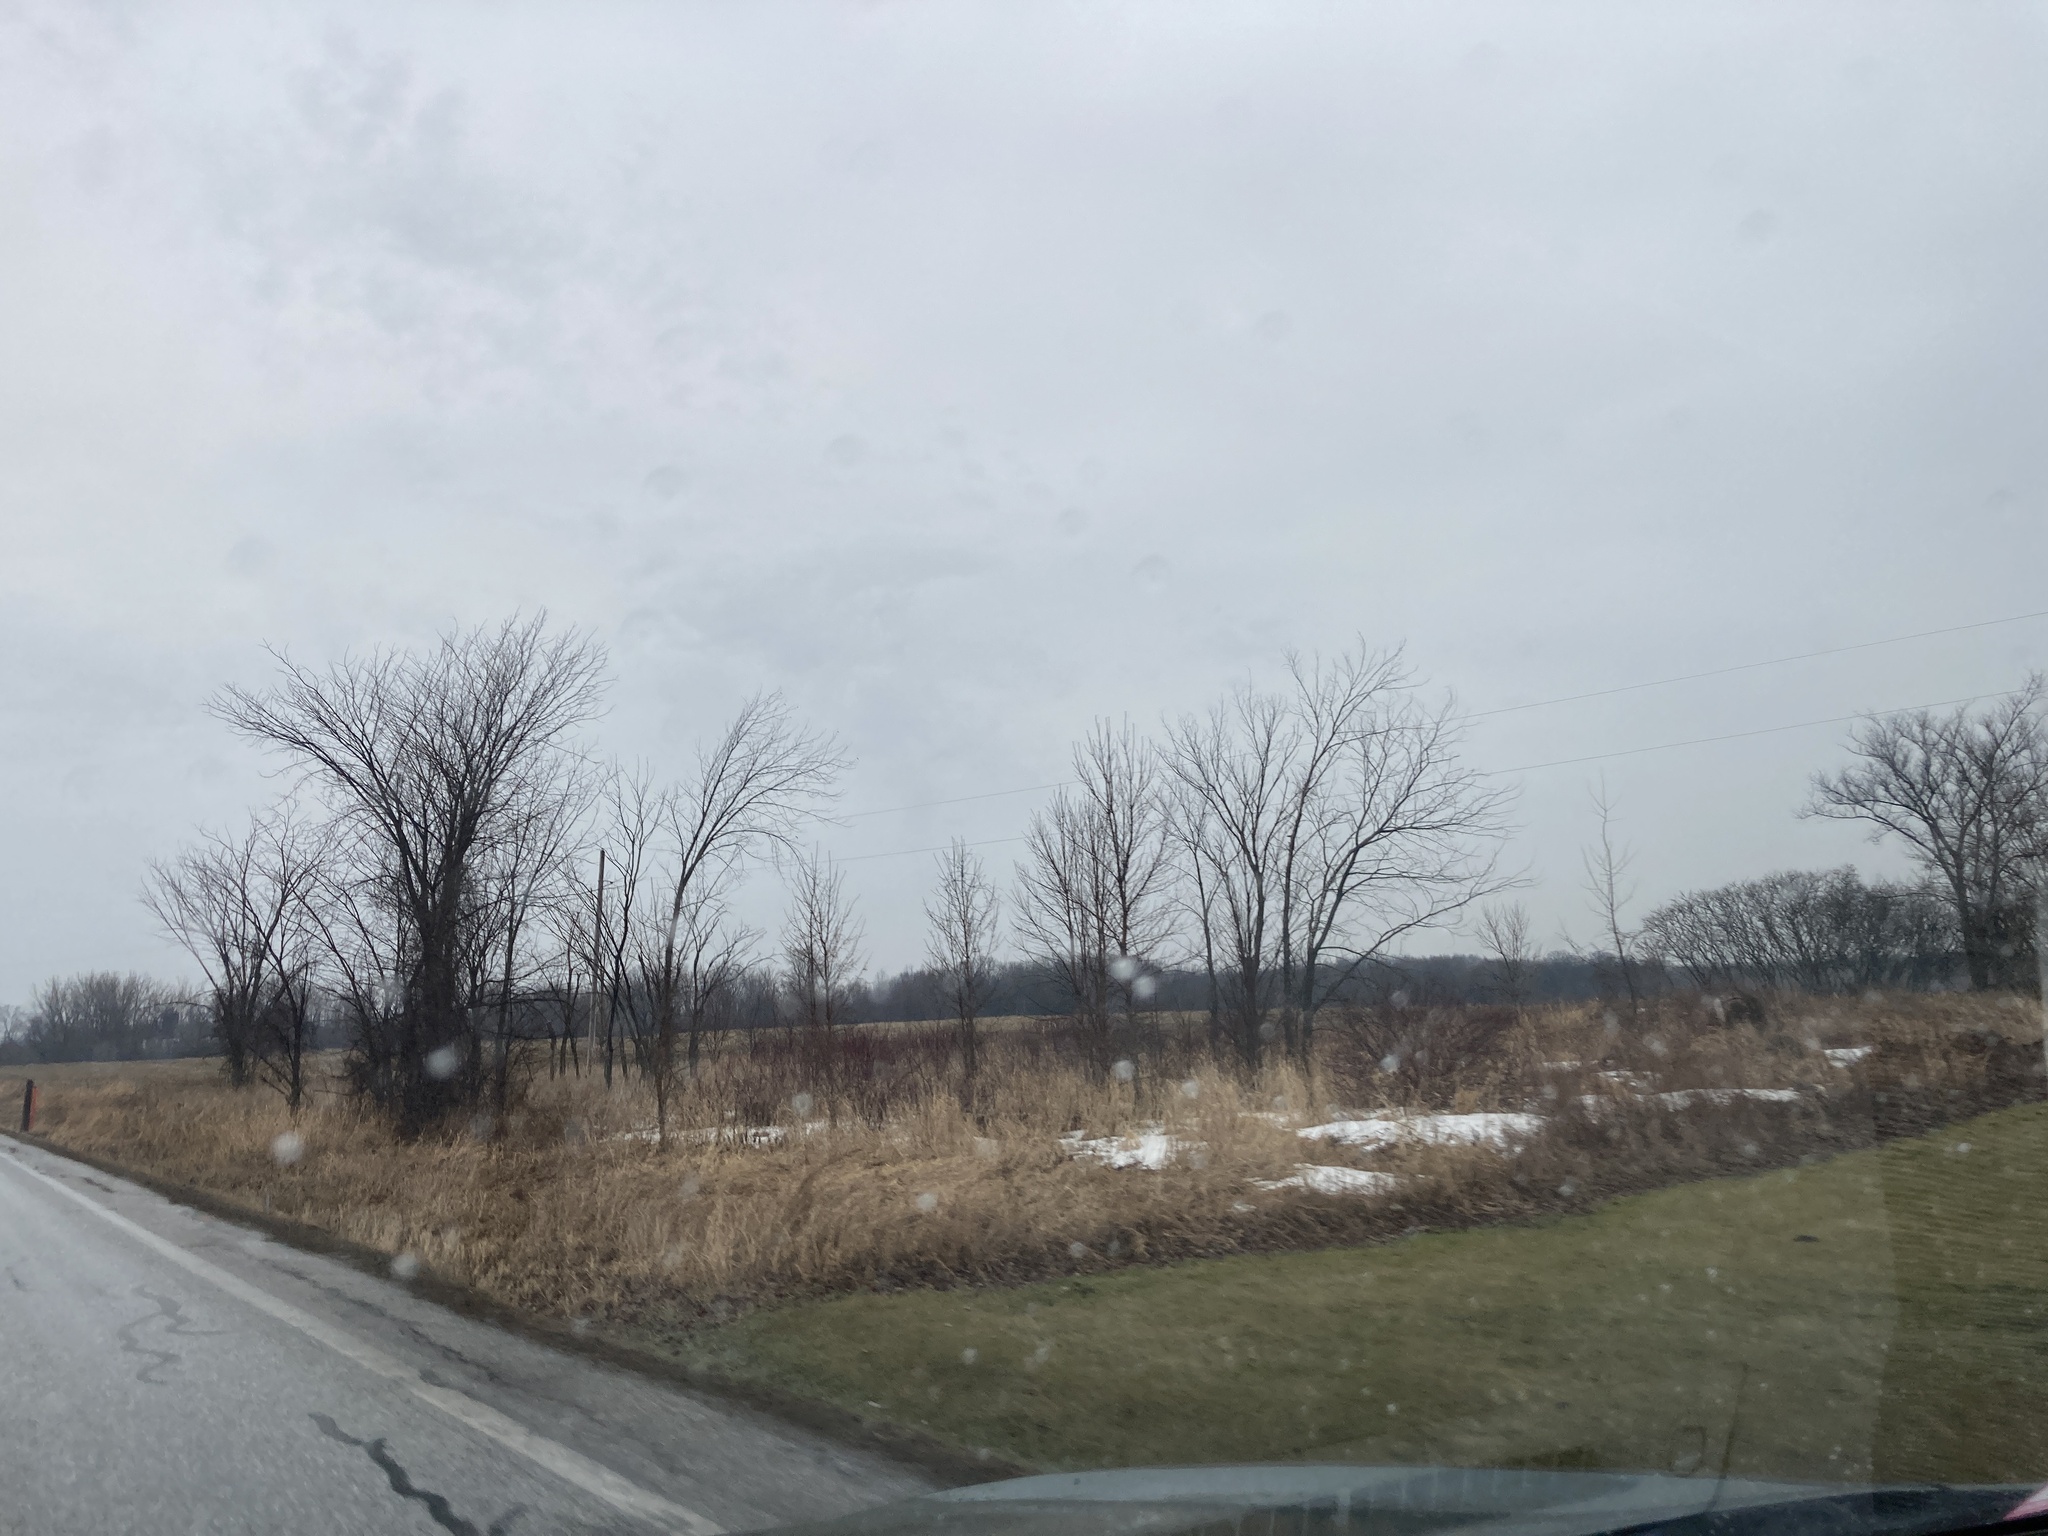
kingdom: Plantae
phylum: Tracheophyta
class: Magnoliopsida
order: Rosales
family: Ulmaceae
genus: Ulmus
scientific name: Ulmus americana
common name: American elm
